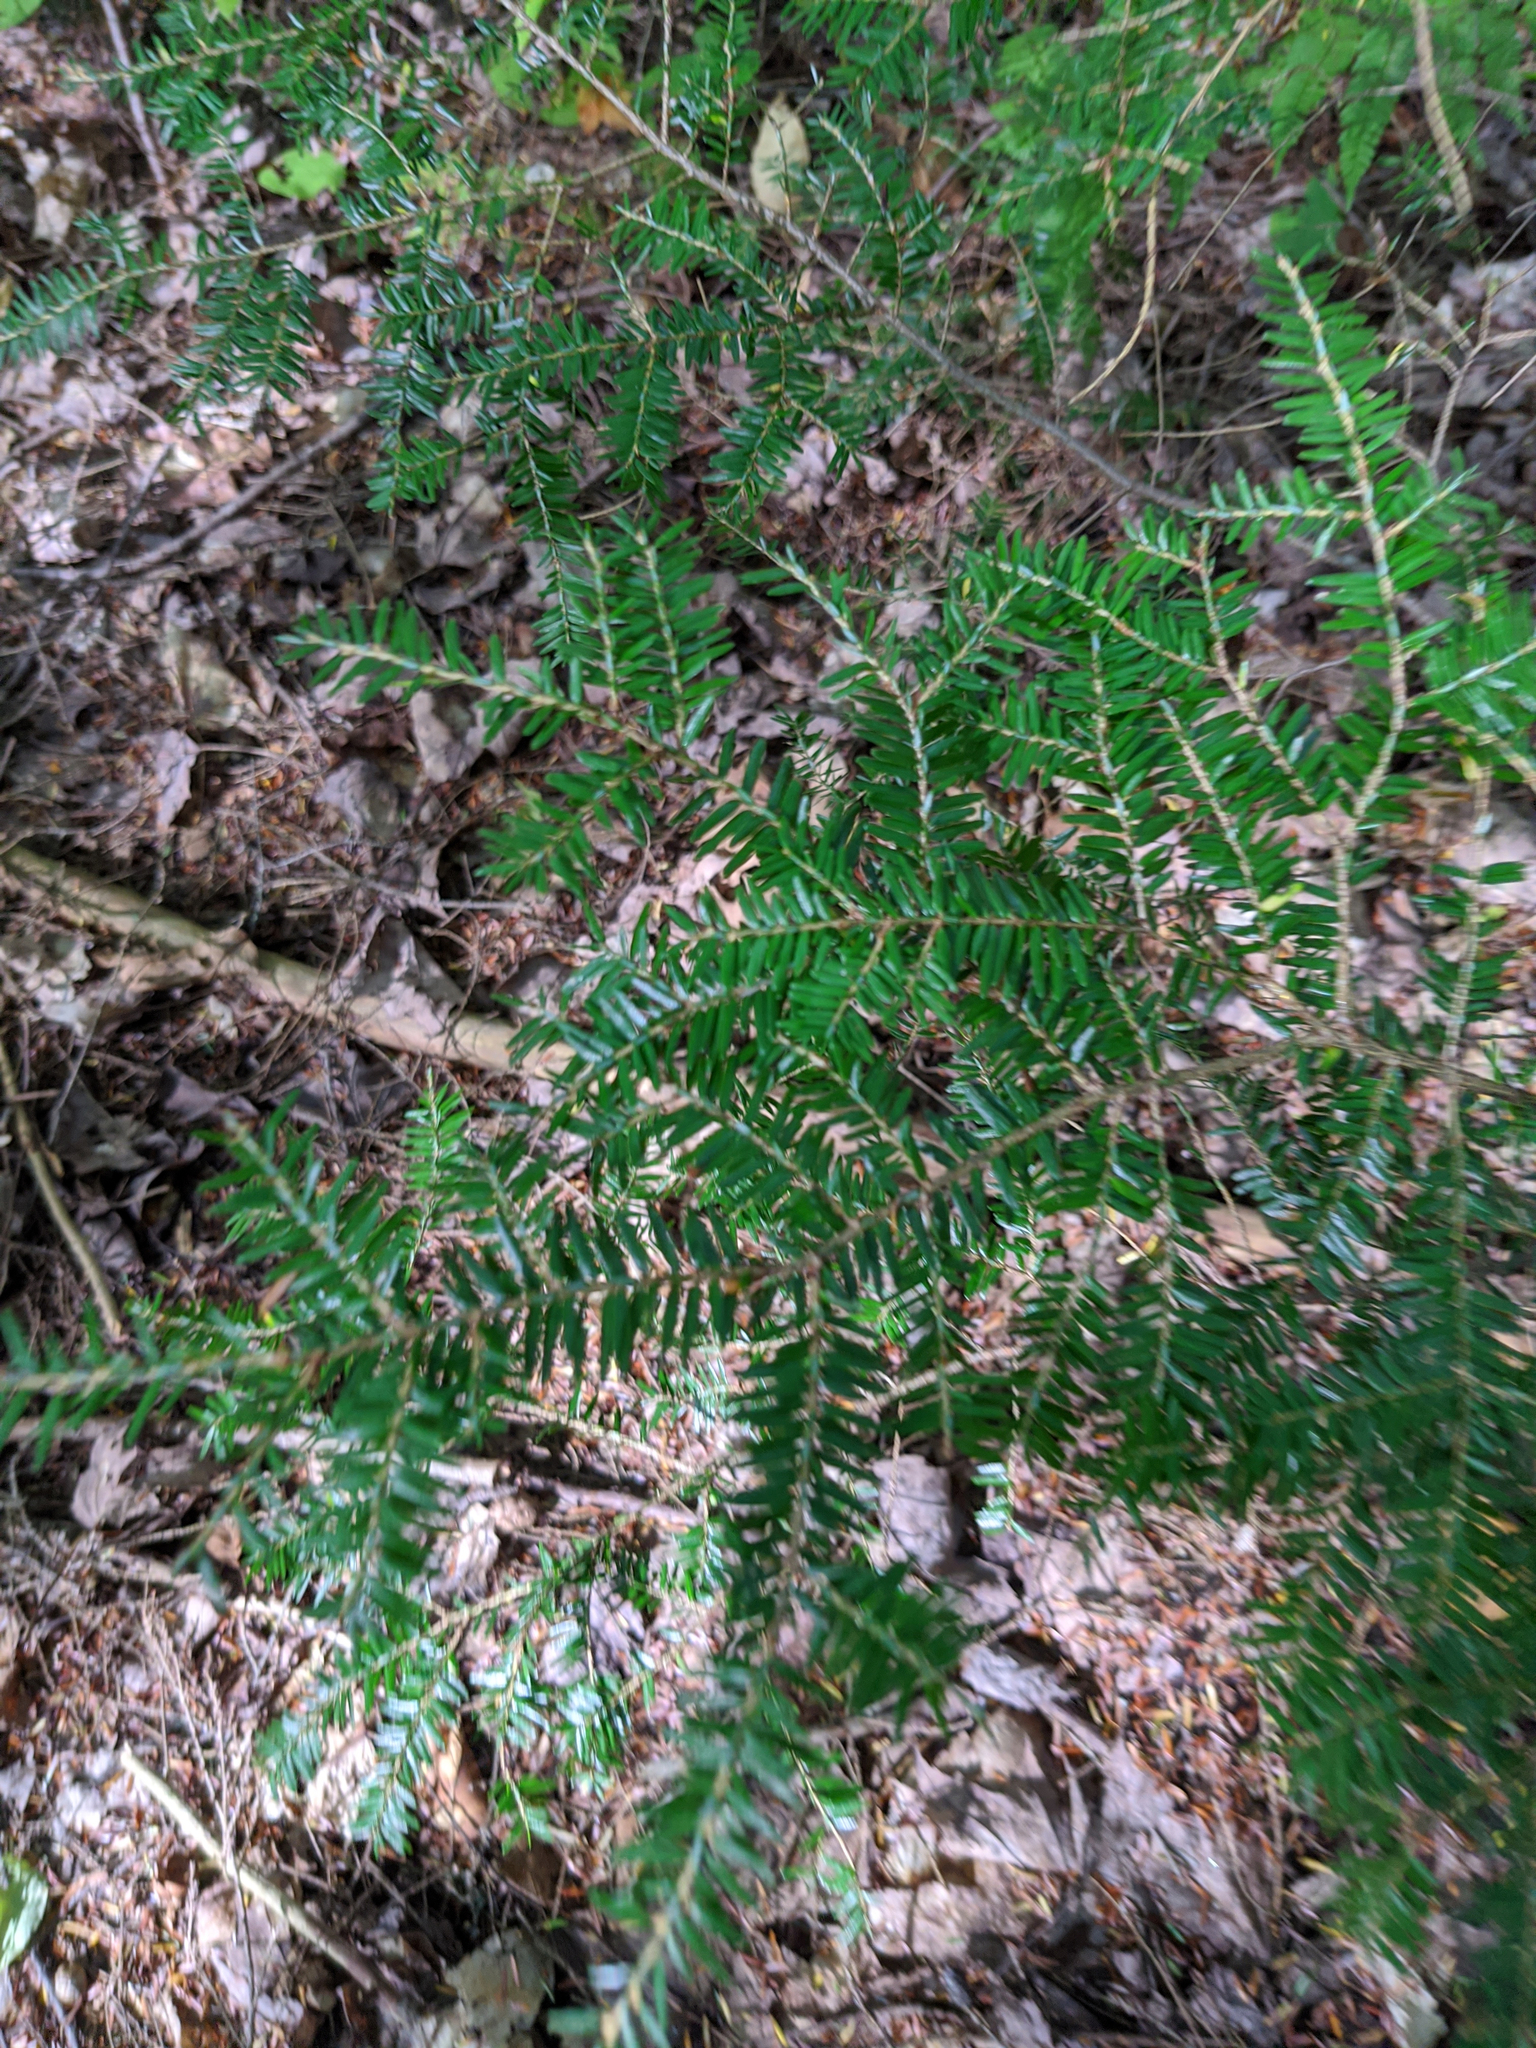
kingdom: Plantae
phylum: Tracheophyta
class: Pinopsida
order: Pinales
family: Pinaceae
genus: Tsuga
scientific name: Tsuga canadensis
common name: Eastern hemlock
